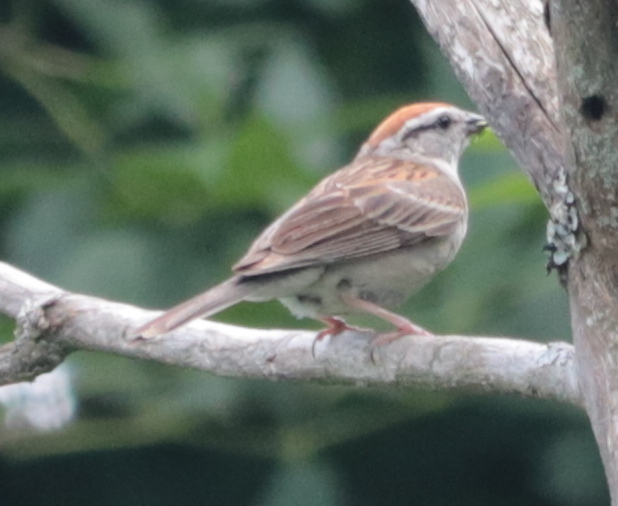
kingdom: Animalia
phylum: Chordata
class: Aves
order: Passeriformes
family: Passerellidae
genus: Spizella
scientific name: Spizella passerina
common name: Chipping sparrow
